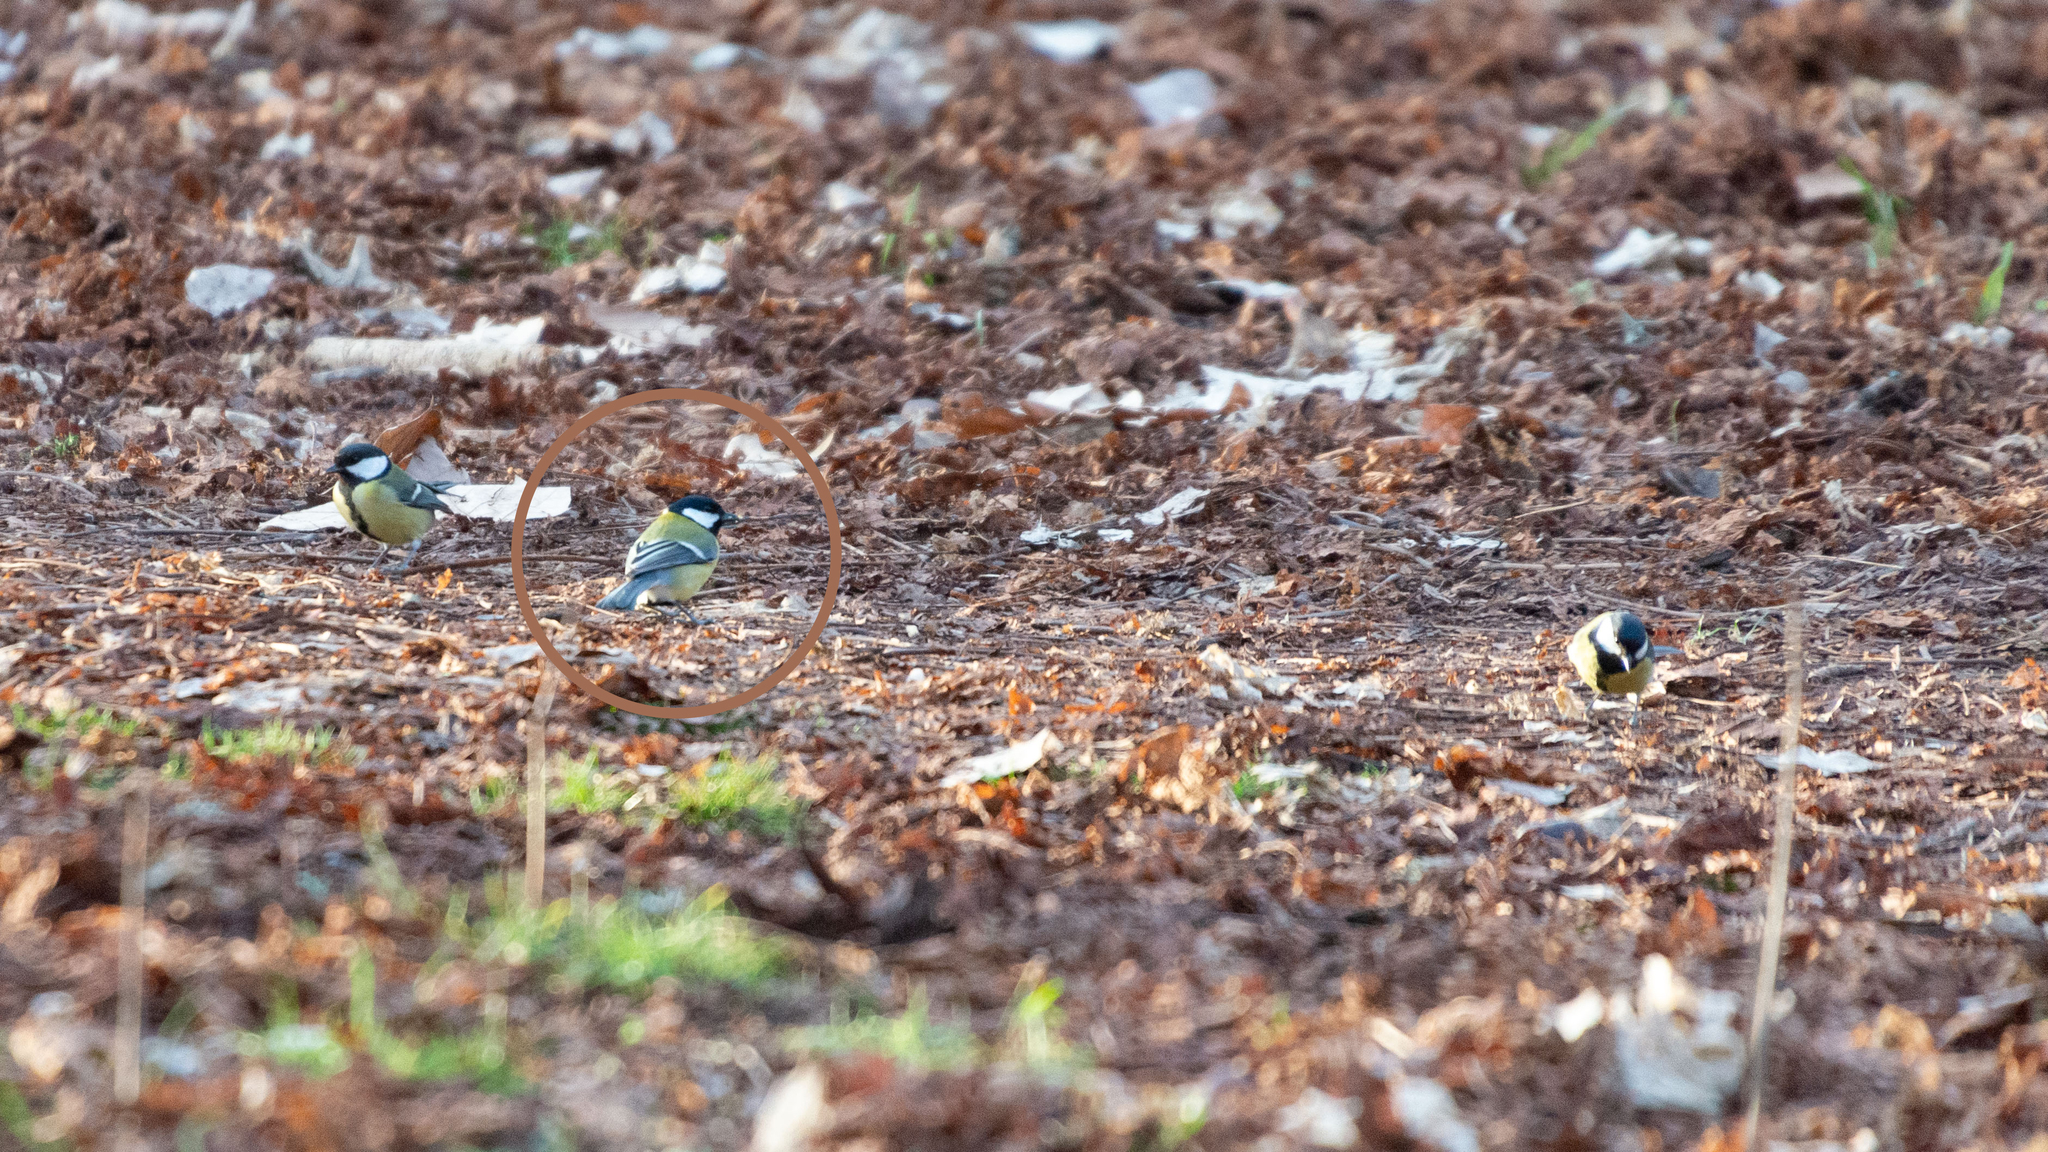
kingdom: Animalia
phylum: Chordata
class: Aves
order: Passeriformes
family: Paridae
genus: Parus
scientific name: Parus major
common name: Great tit
